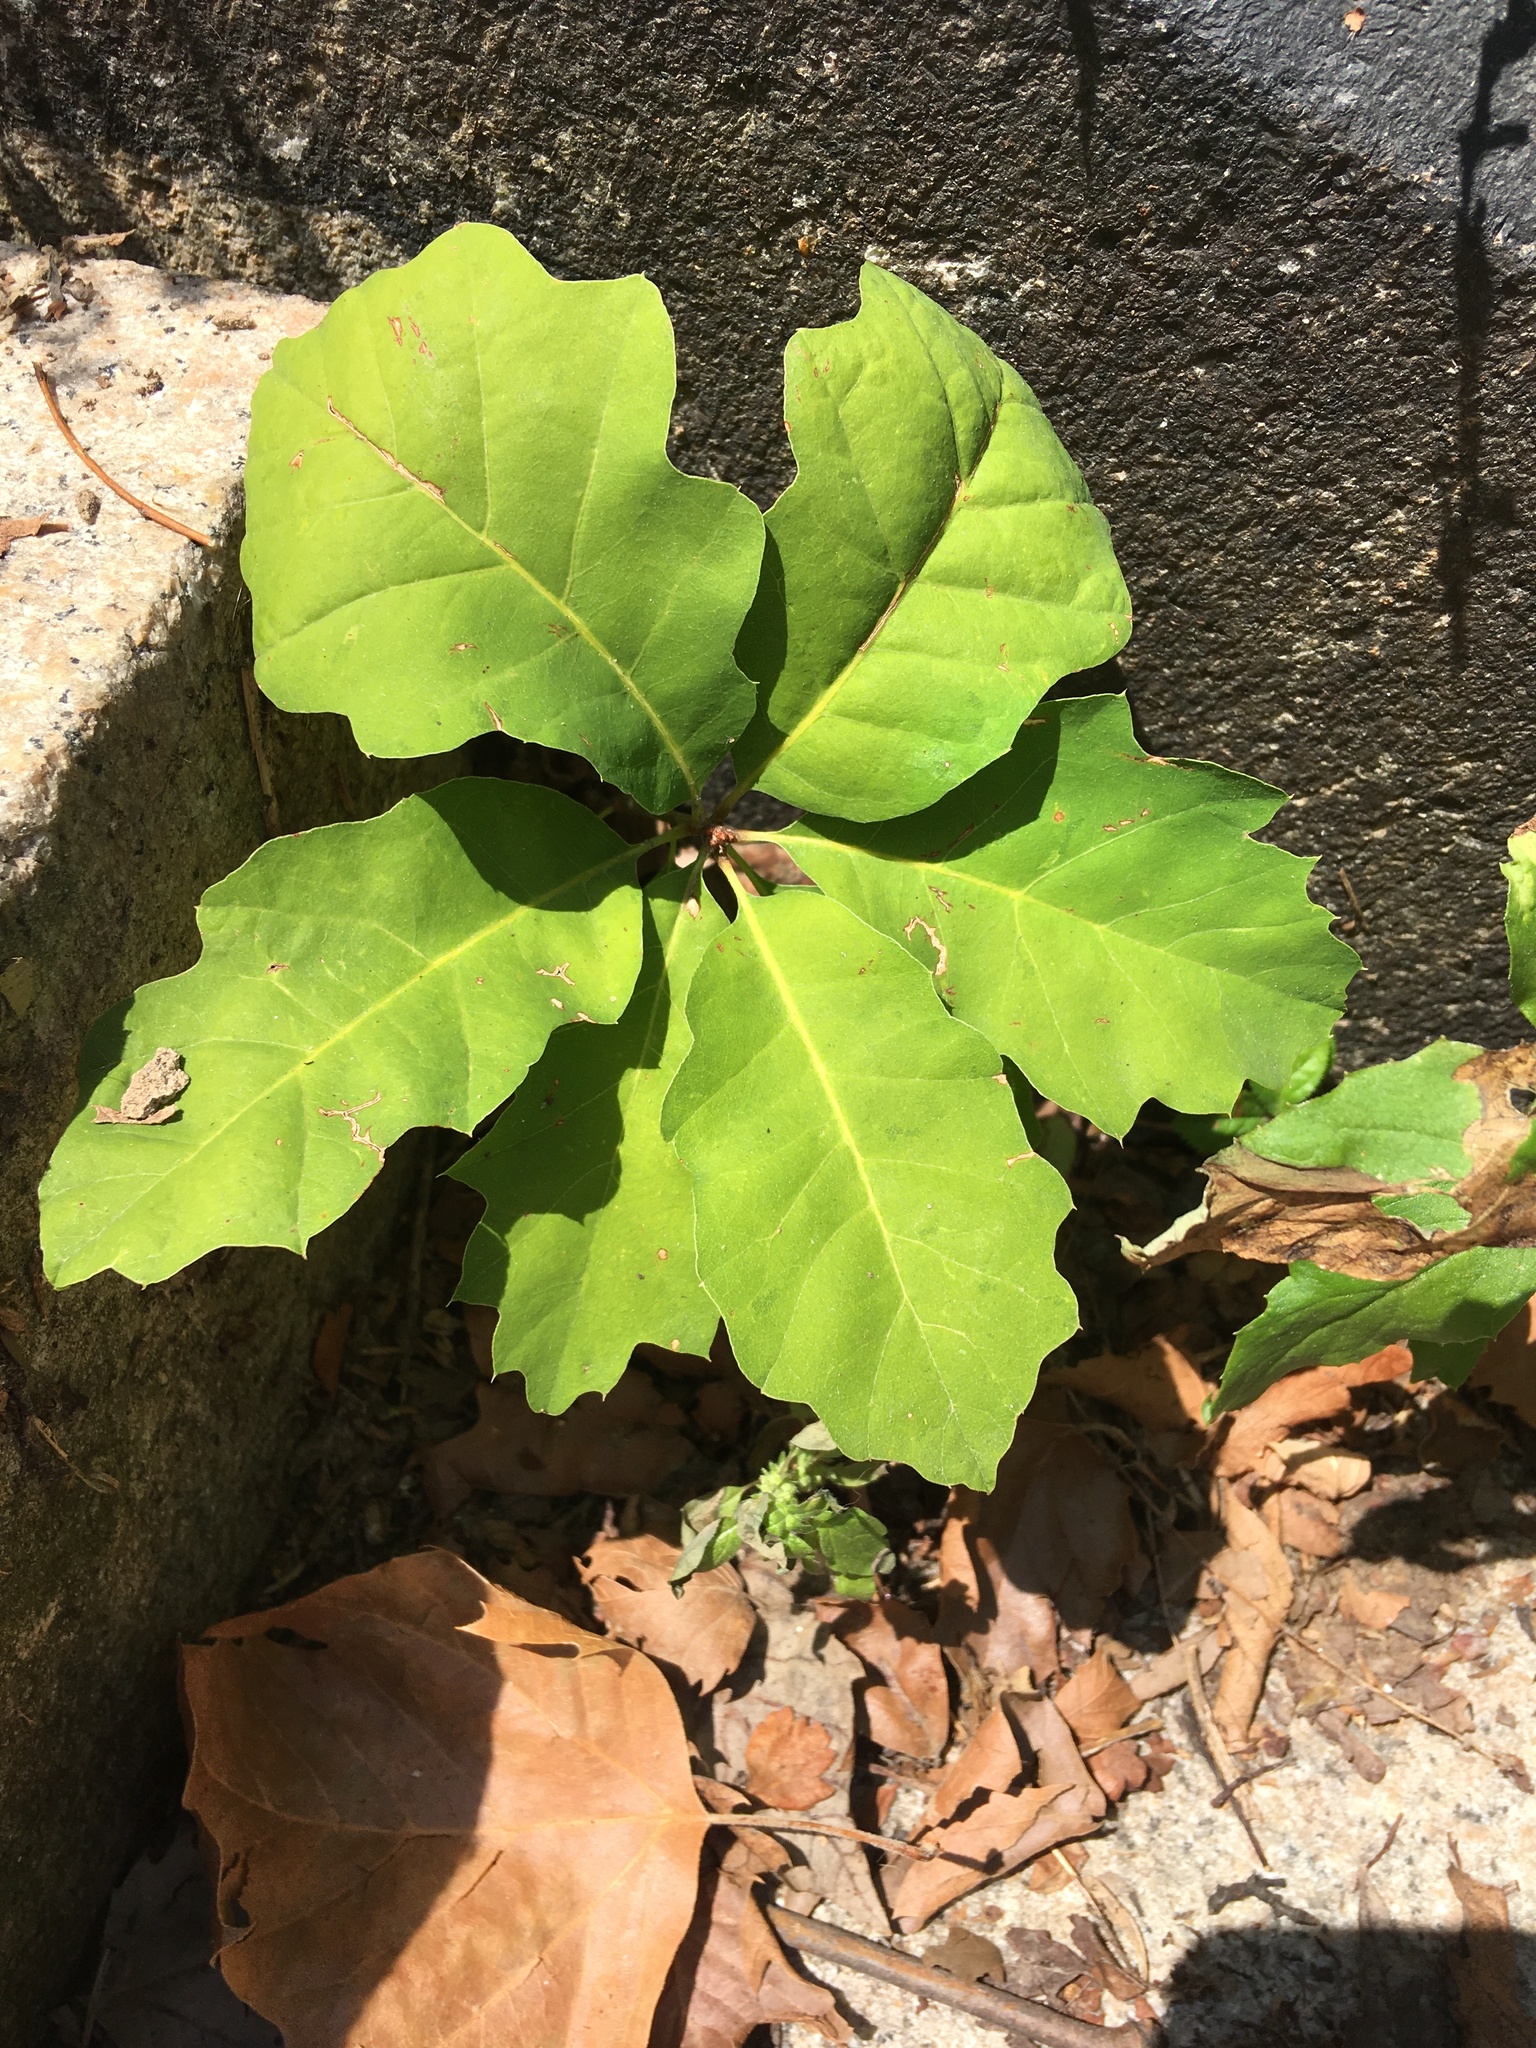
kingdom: Plantae
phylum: Tracheophyta
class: Magnoliopsida
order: Fagales
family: Fagaceae
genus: Quercus
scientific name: Quercus rubra
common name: Red oak
